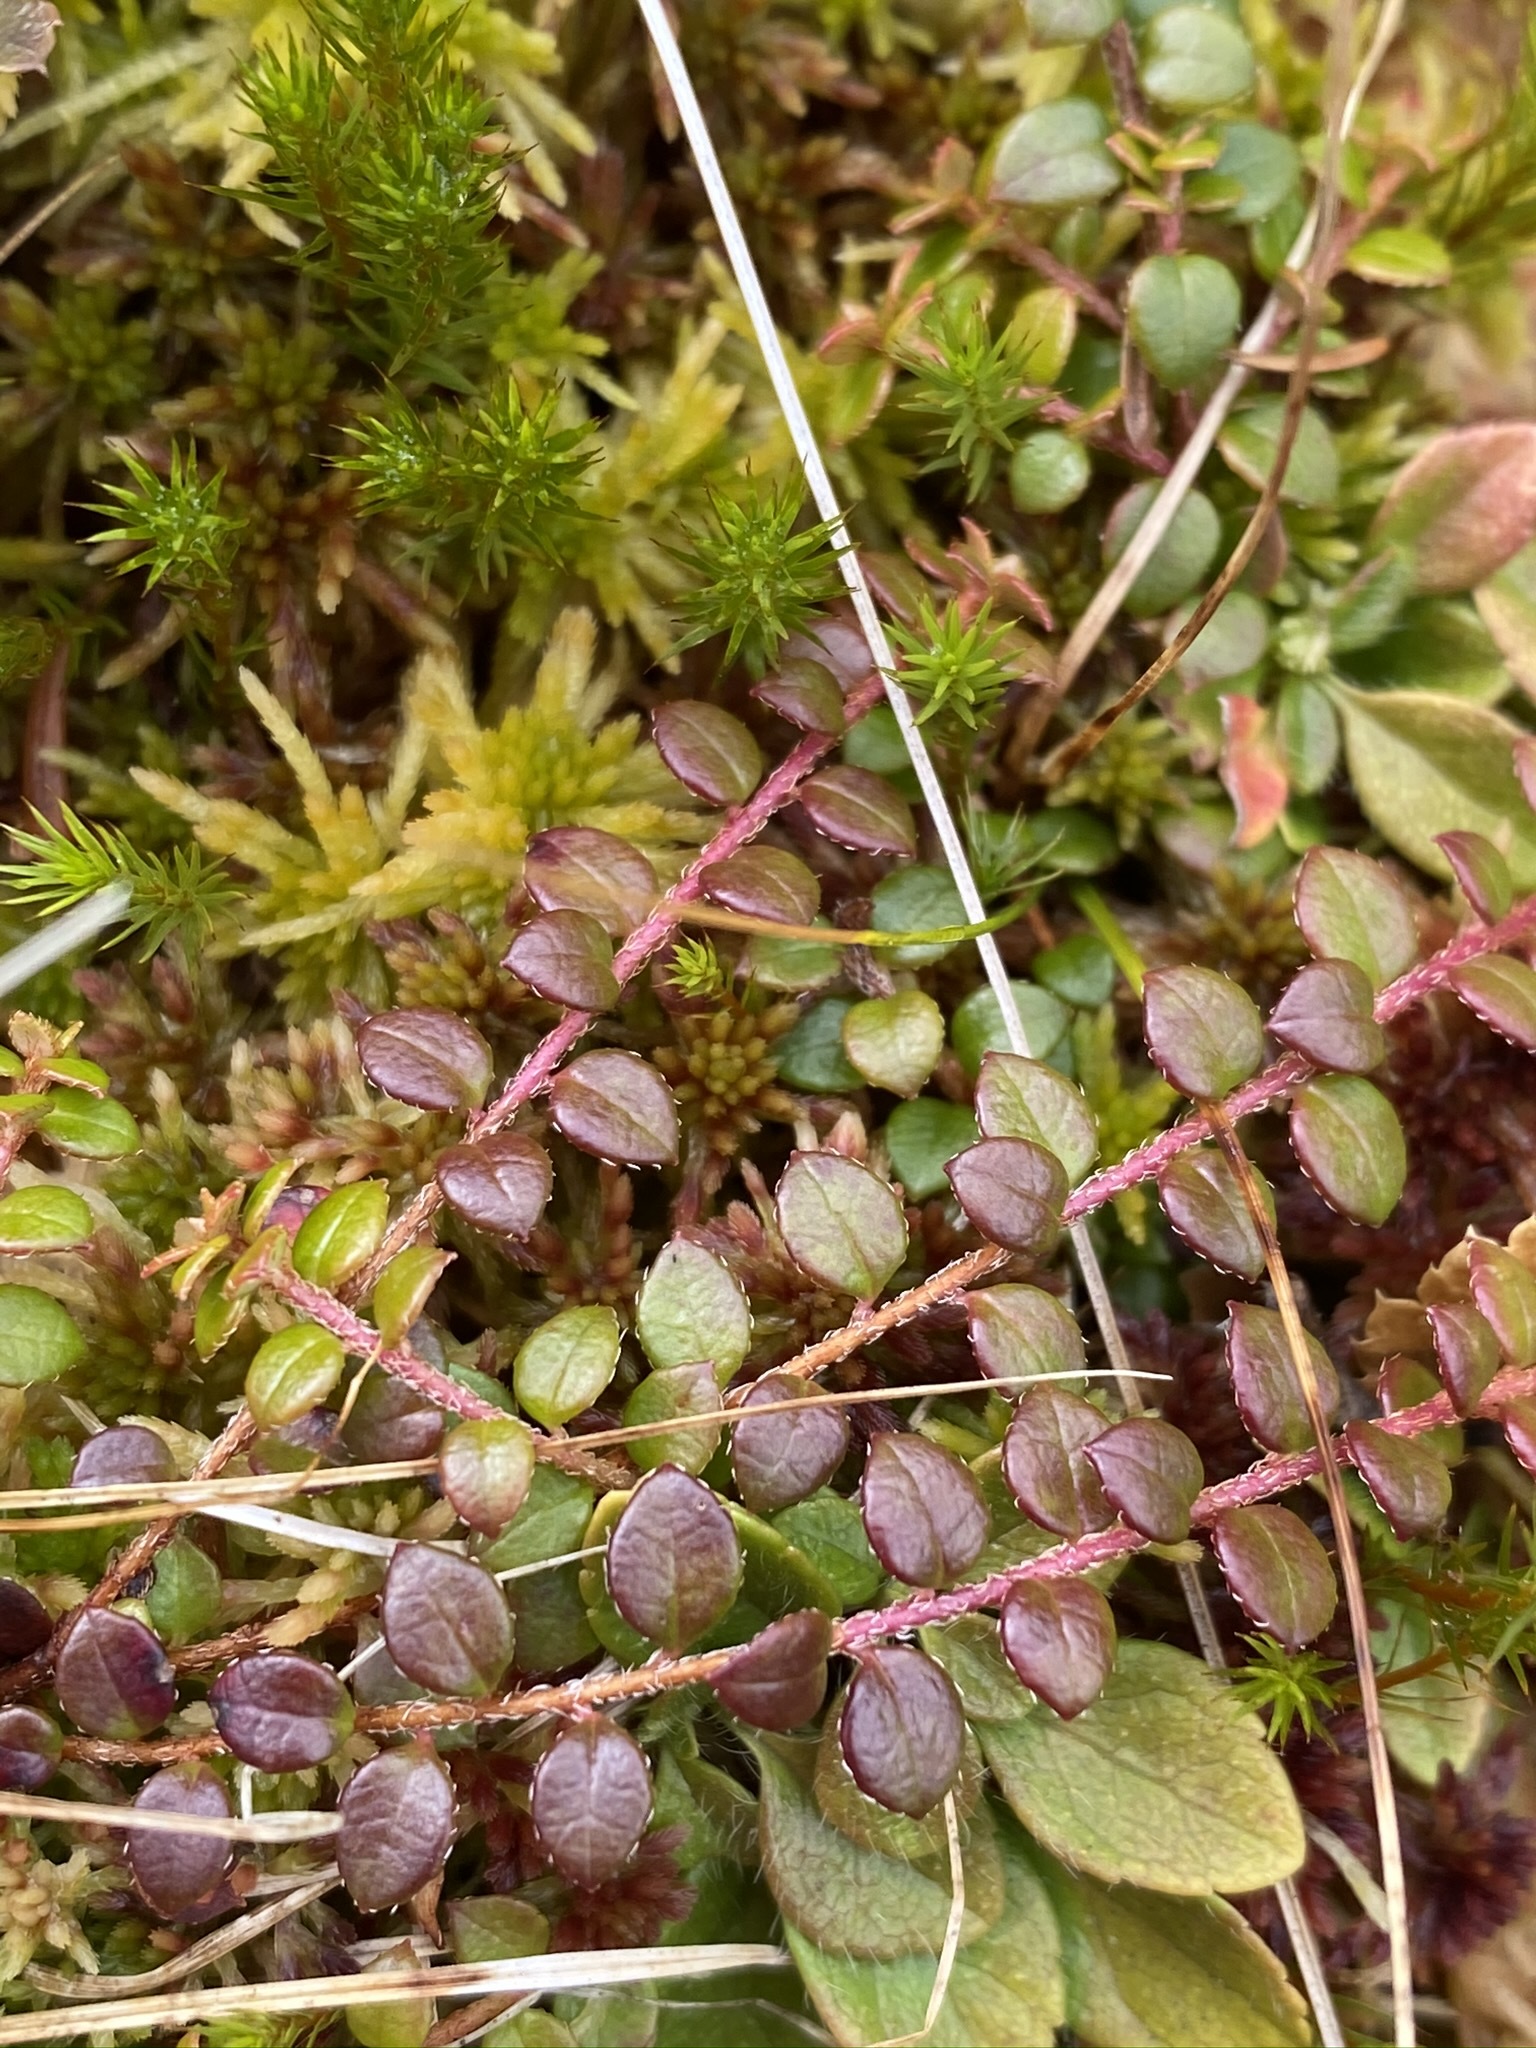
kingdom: Plantae
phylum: Tracheophyta
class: Magnoliopsida
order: Ericales
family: Ericaceae
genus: Gaultheria
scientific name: Gaultheria hispidula
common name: Cancer wintergreen
